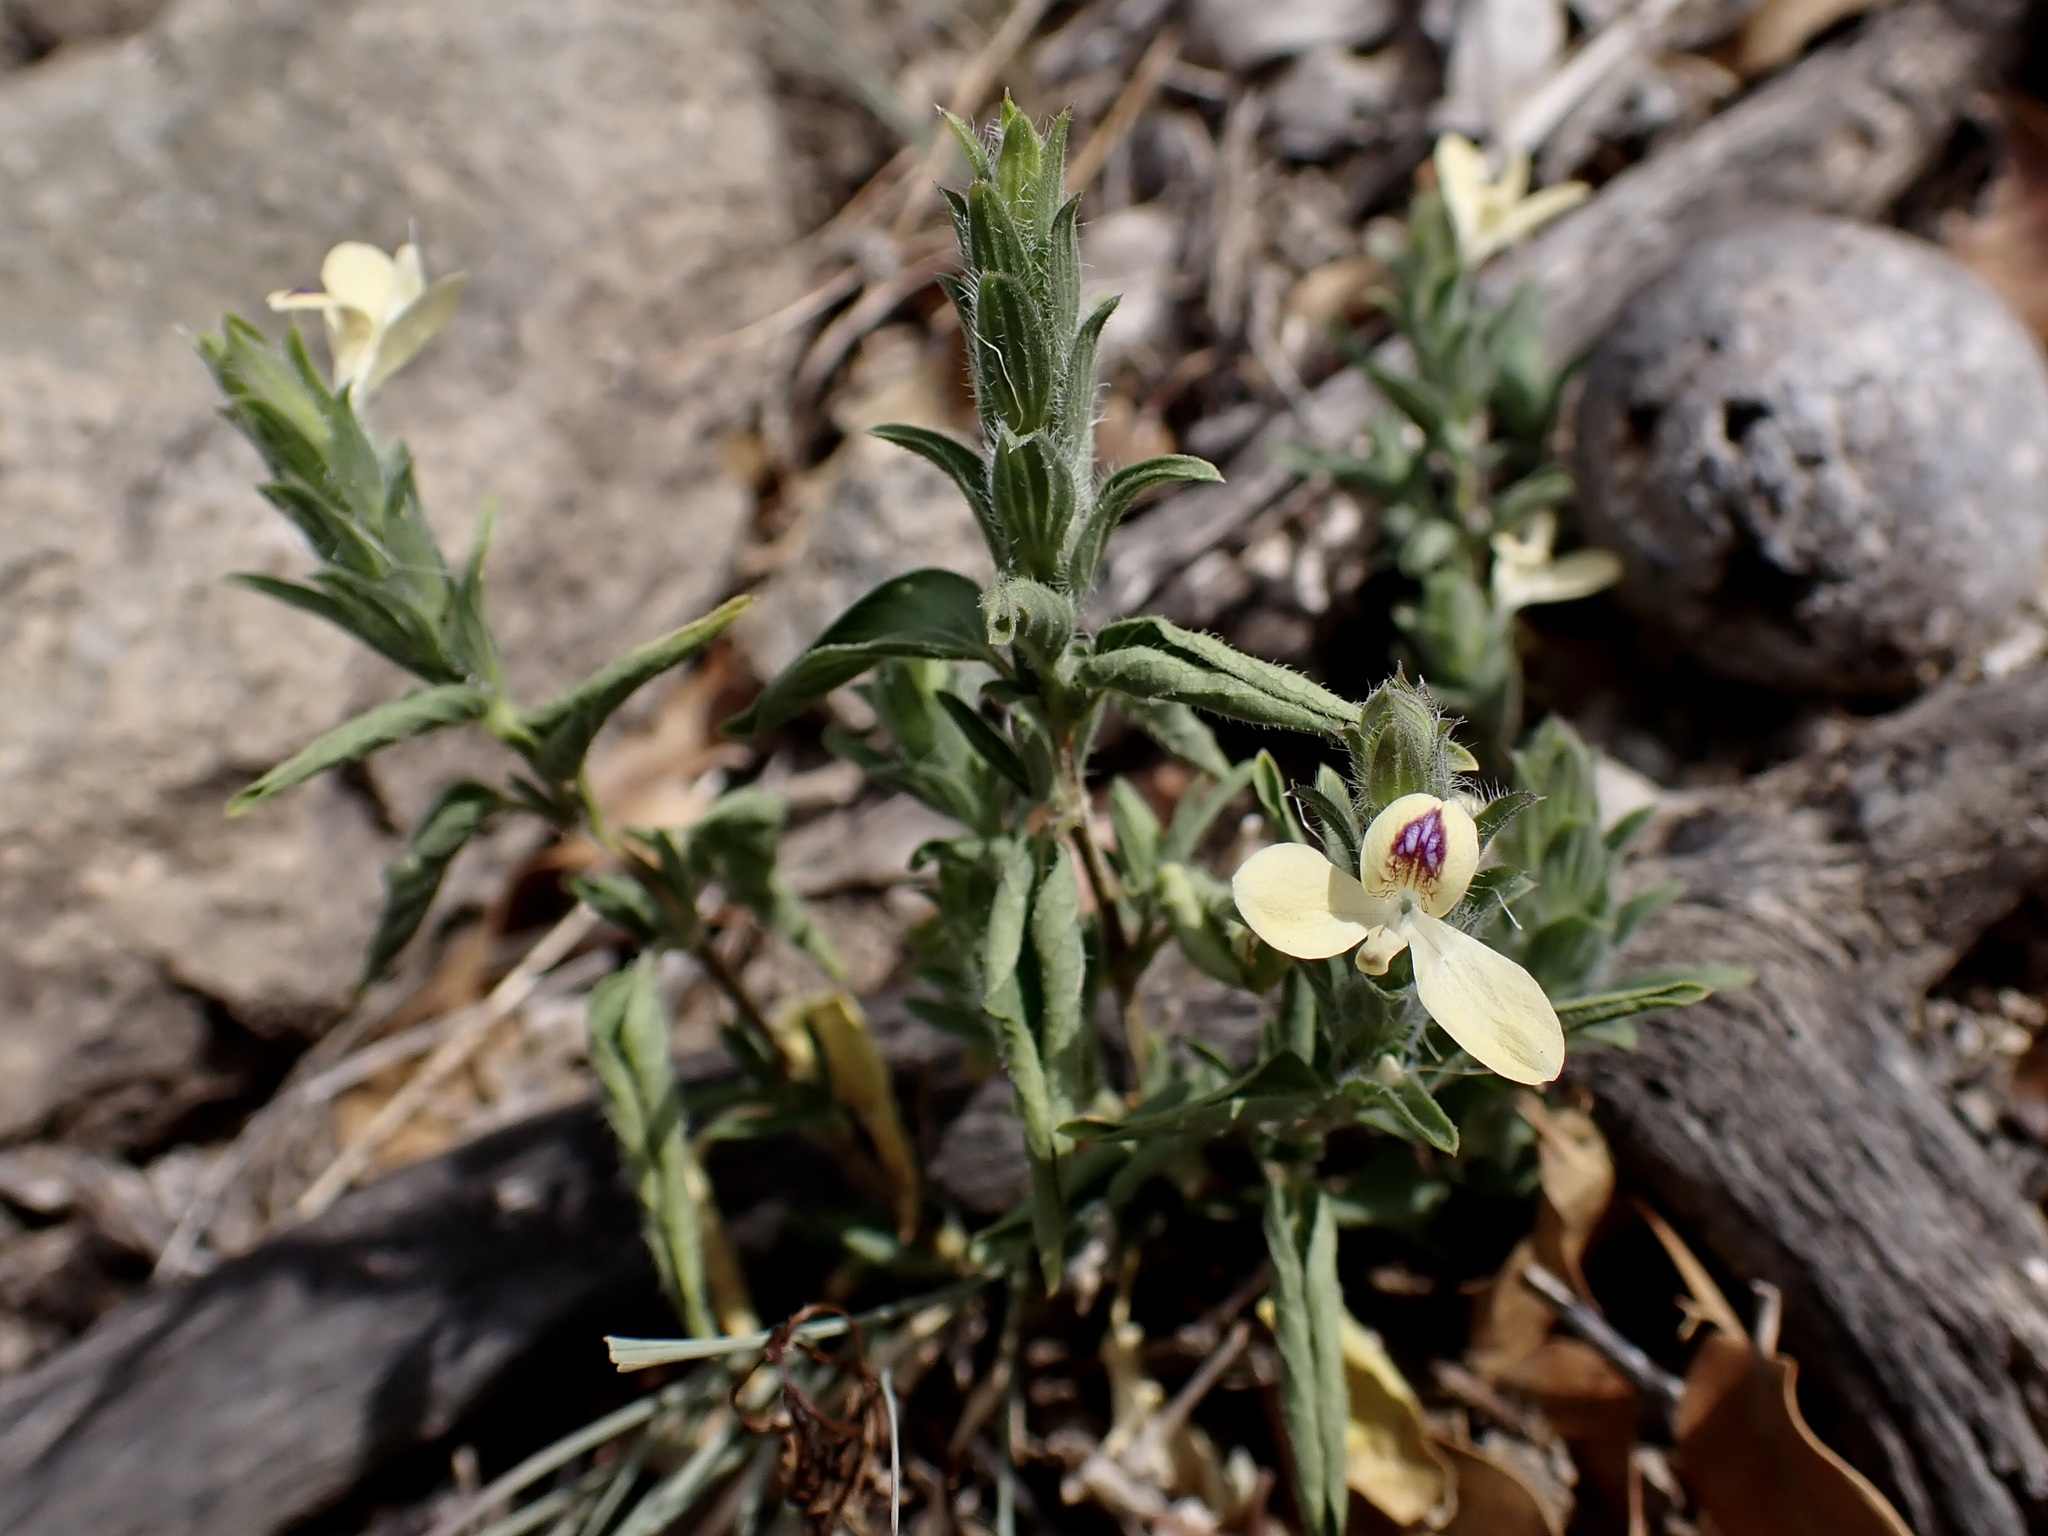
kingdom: Plantae
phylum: Tracheophyta
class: Magnoliopsida
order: Lamiales
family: Acanthaceae
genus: Tetramerium
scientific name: Tetramerium nervosum
